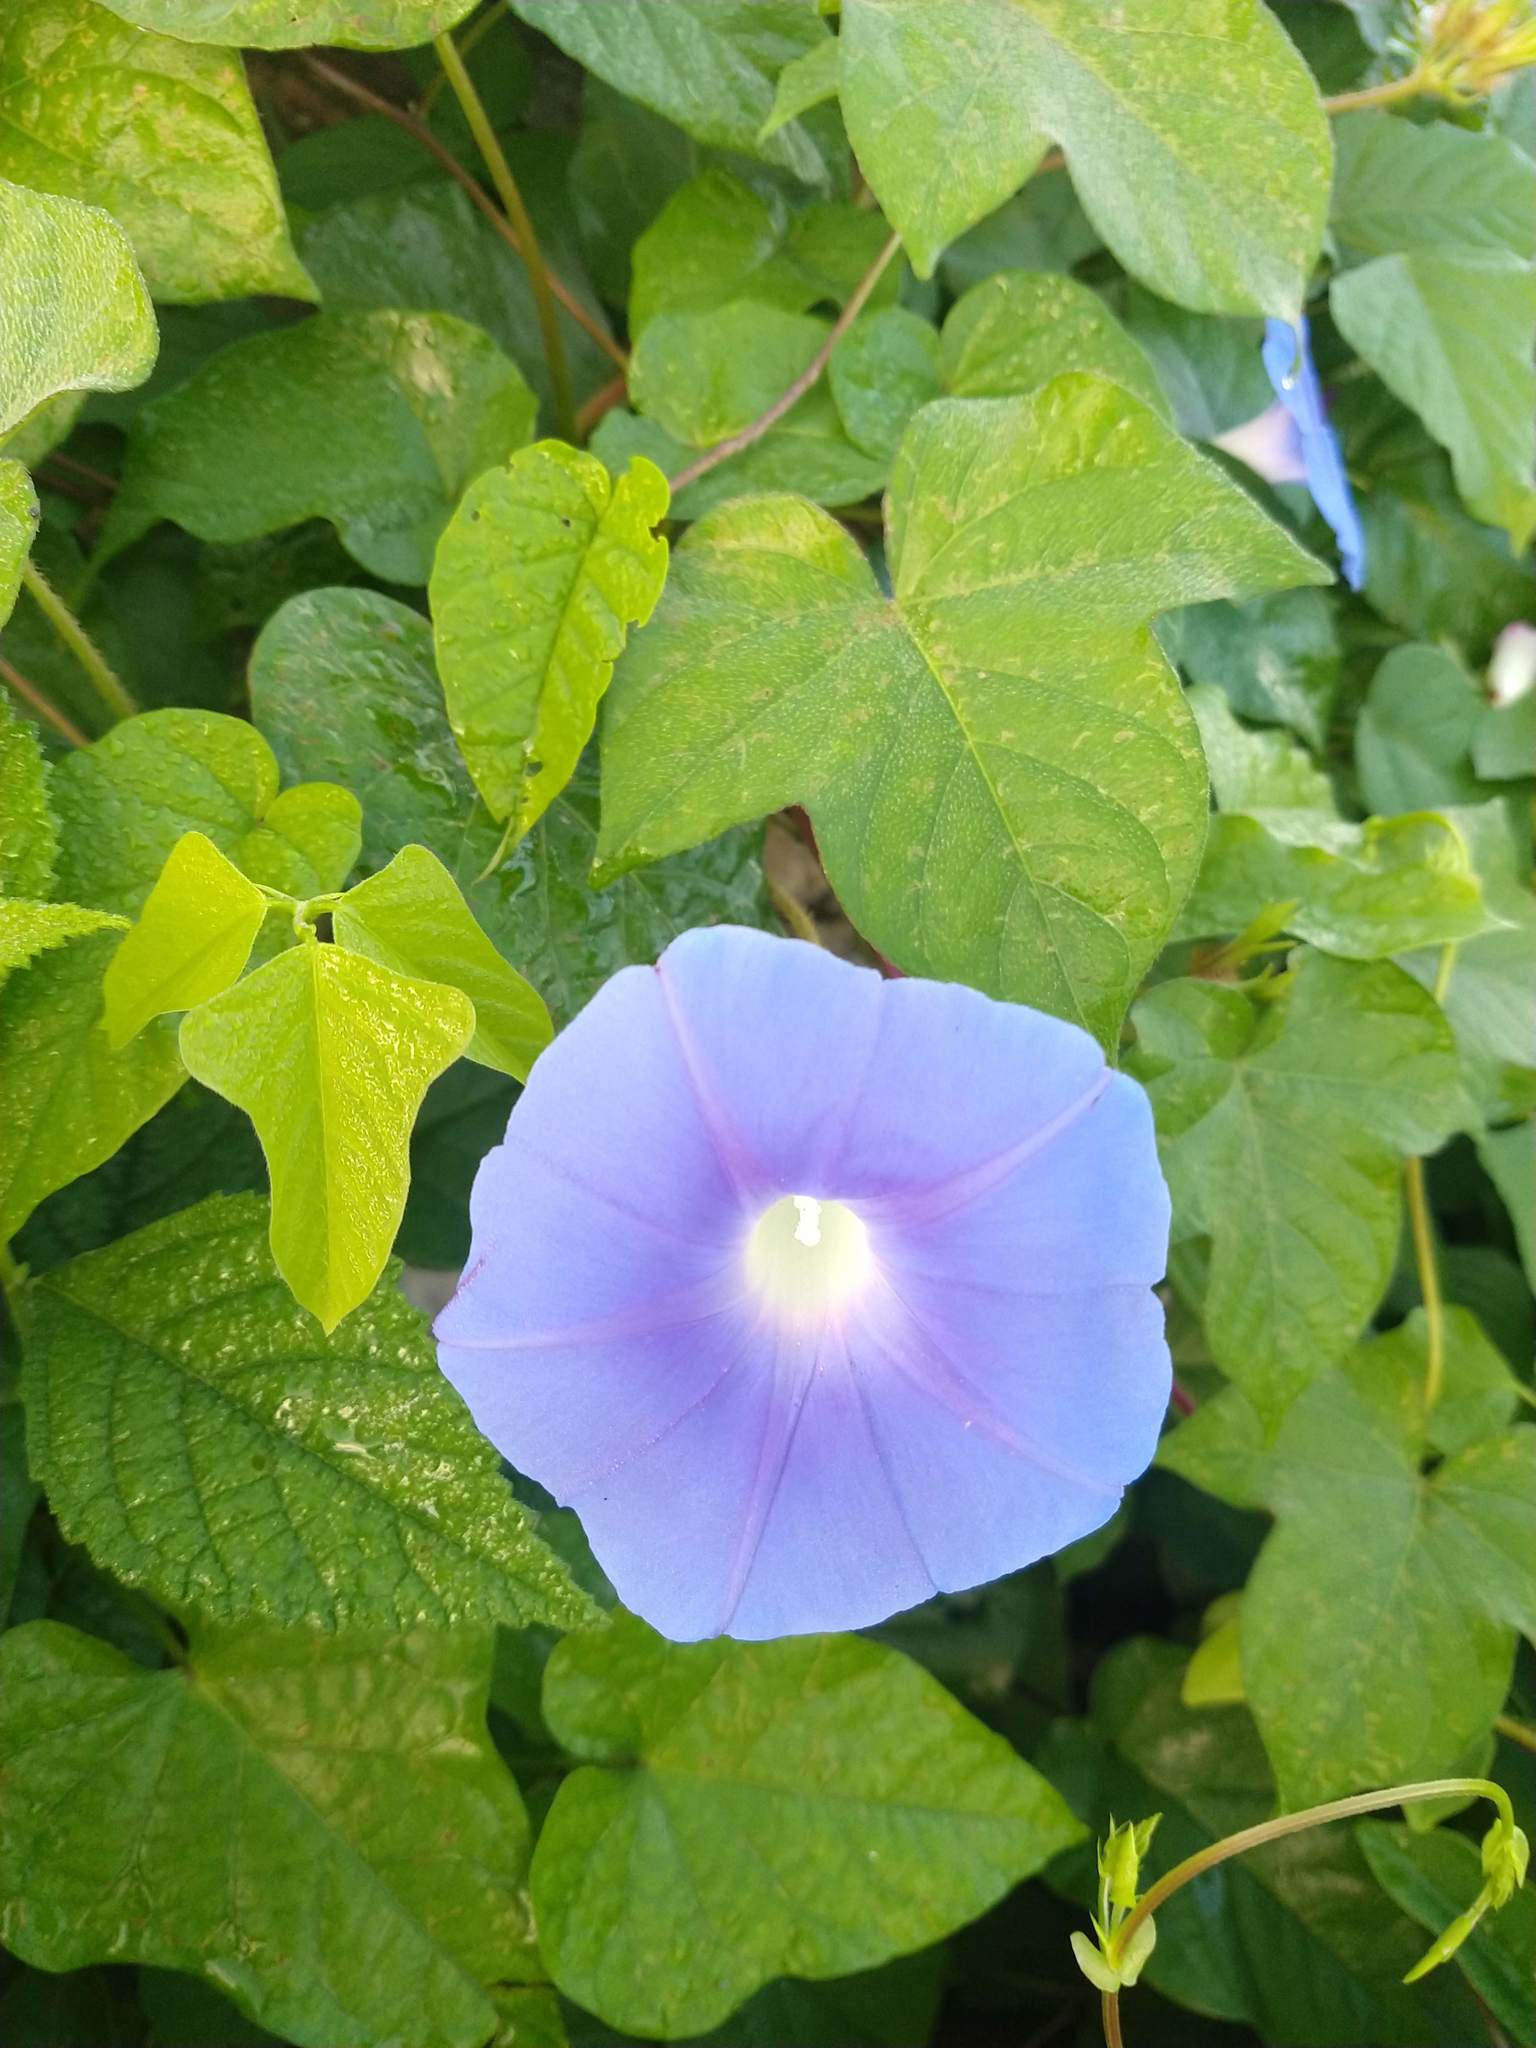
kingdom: Plantae
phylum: Tracheophyta
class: Magnoliopsida
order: Solanales
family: Convolvulaceae
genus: Ipomoea
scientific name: Ipomoea nil
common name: Japanese morning-glory
